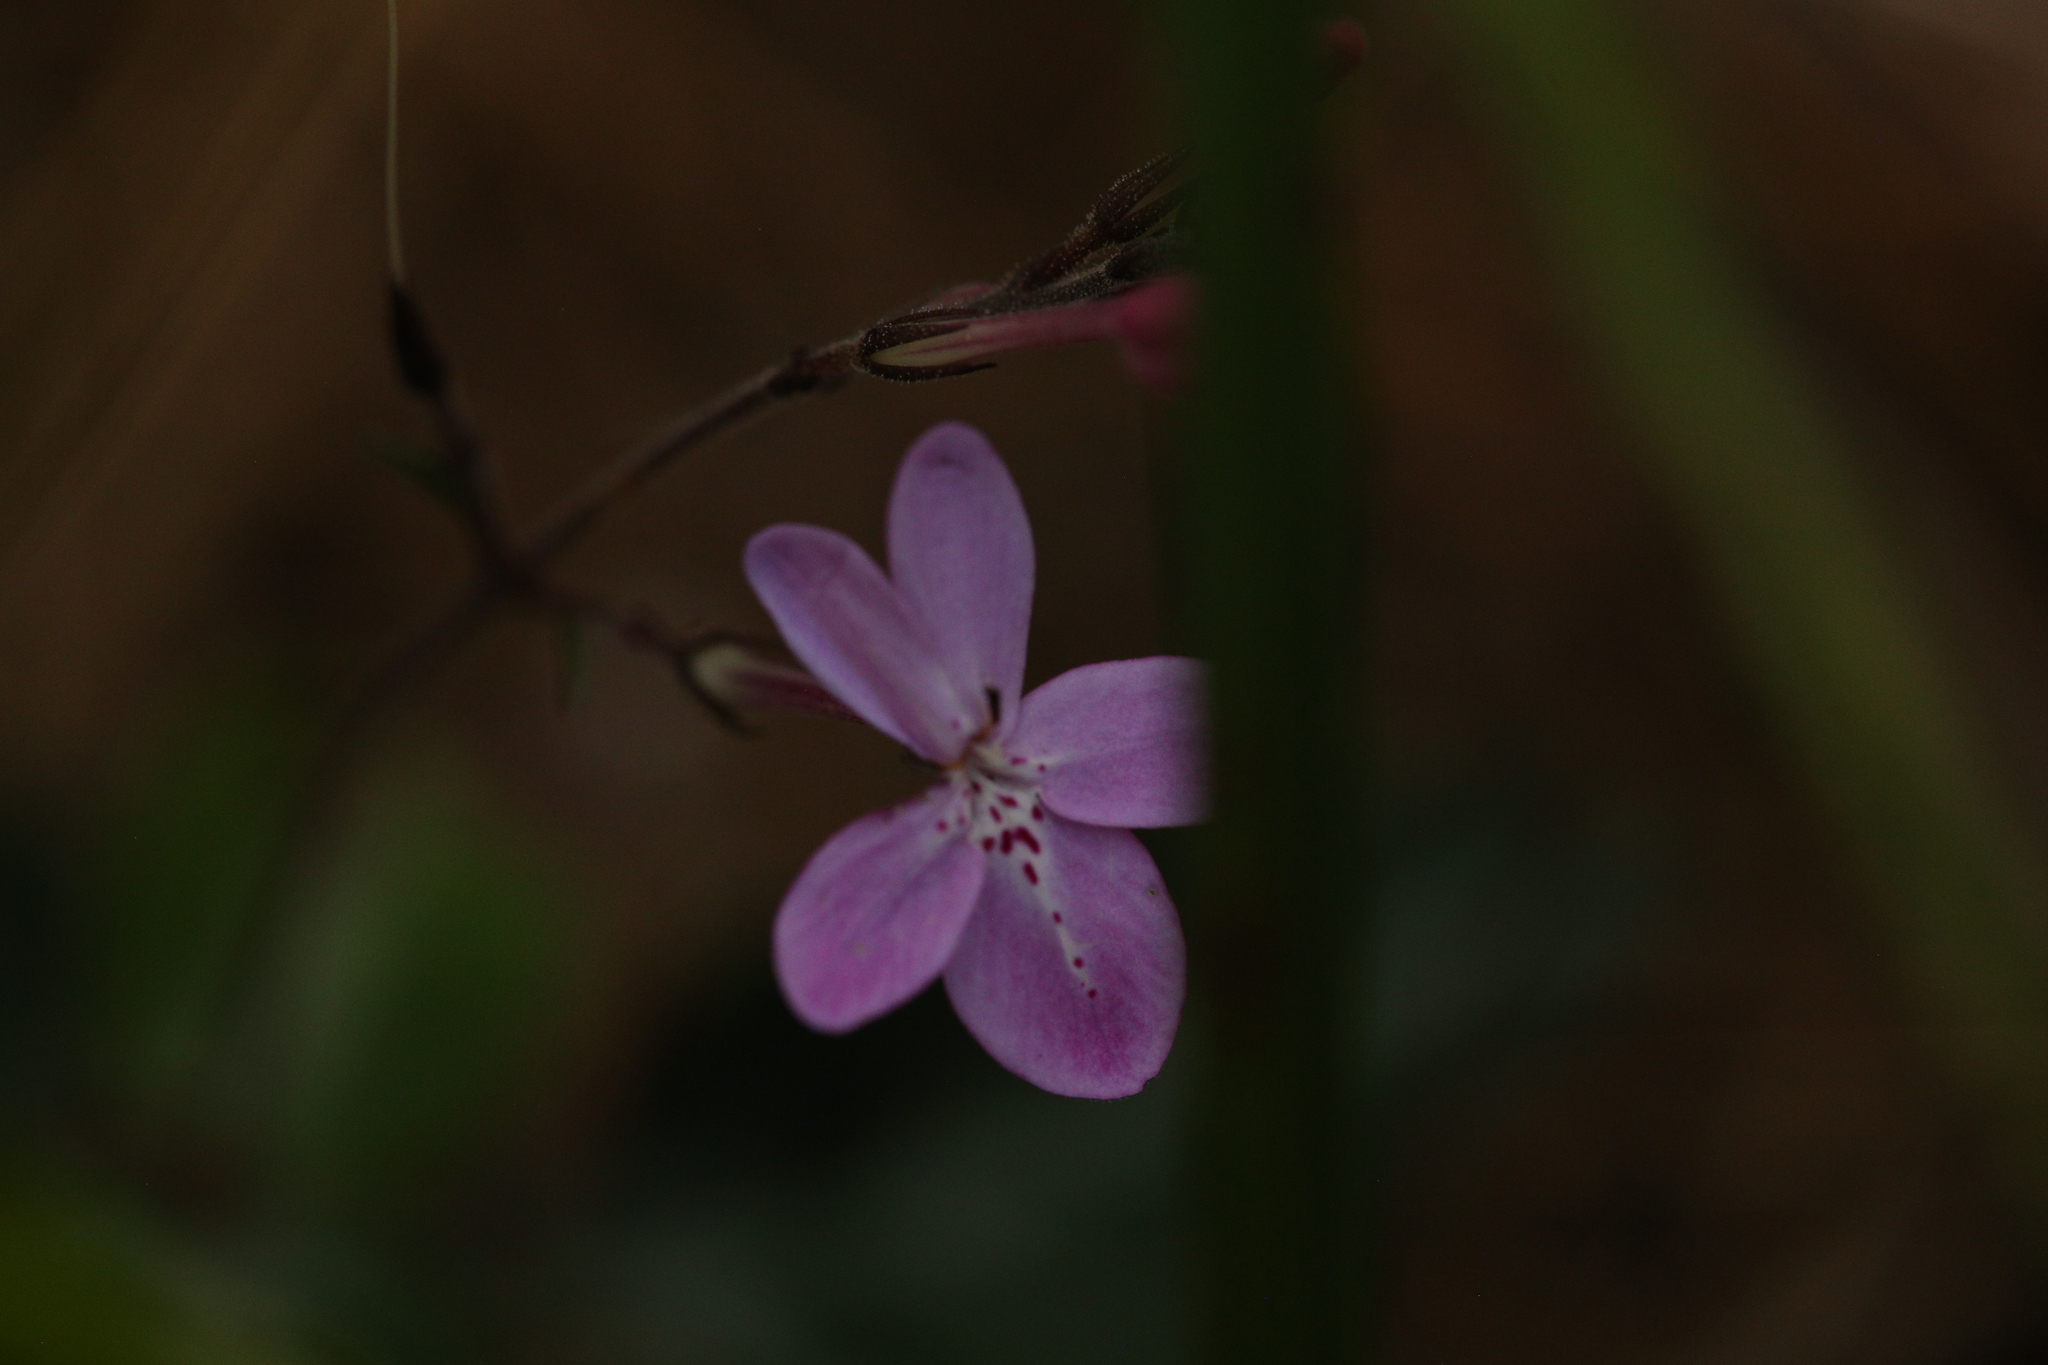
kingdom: Plantae
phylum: Tracheophyta
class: Magnoliopsida
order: Lamiales
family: Acanthaceae
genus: Pseuderanthemum
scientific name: Pseuderanthemum variabile
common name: Night and afternoon
